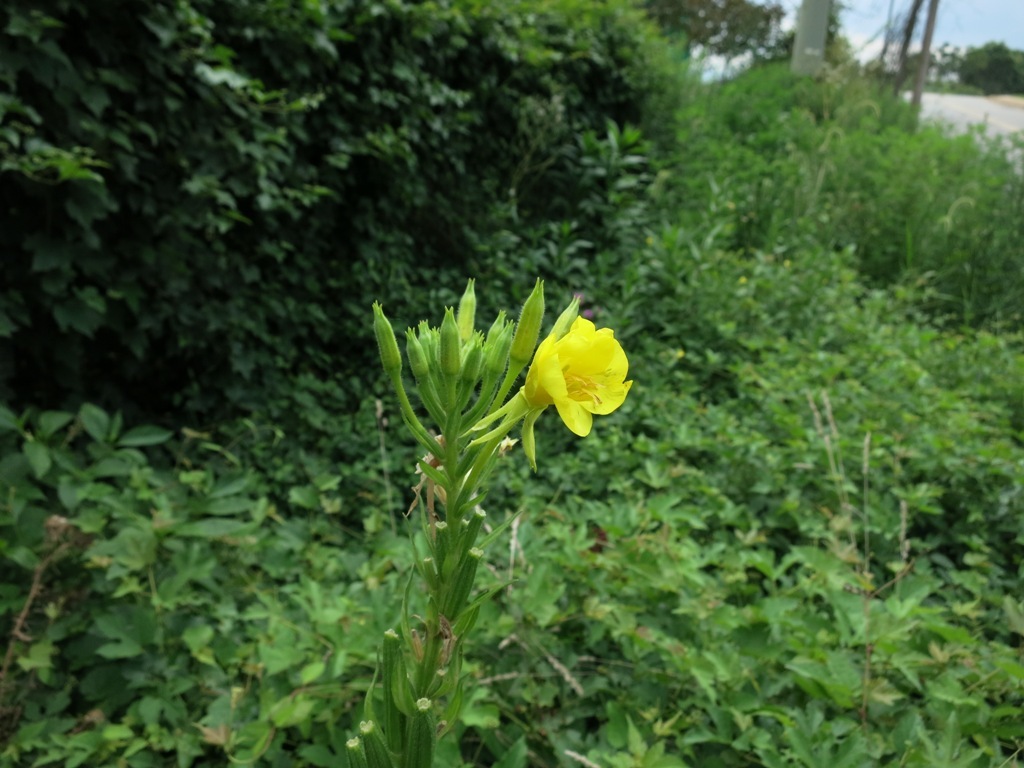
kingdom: Plantae
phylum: Tracheophyta
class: Magnoliopsida
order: Myrtales
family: Onagraceae
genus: Oenothera
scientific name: Oenothera biennis
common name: Common evening-primrose
